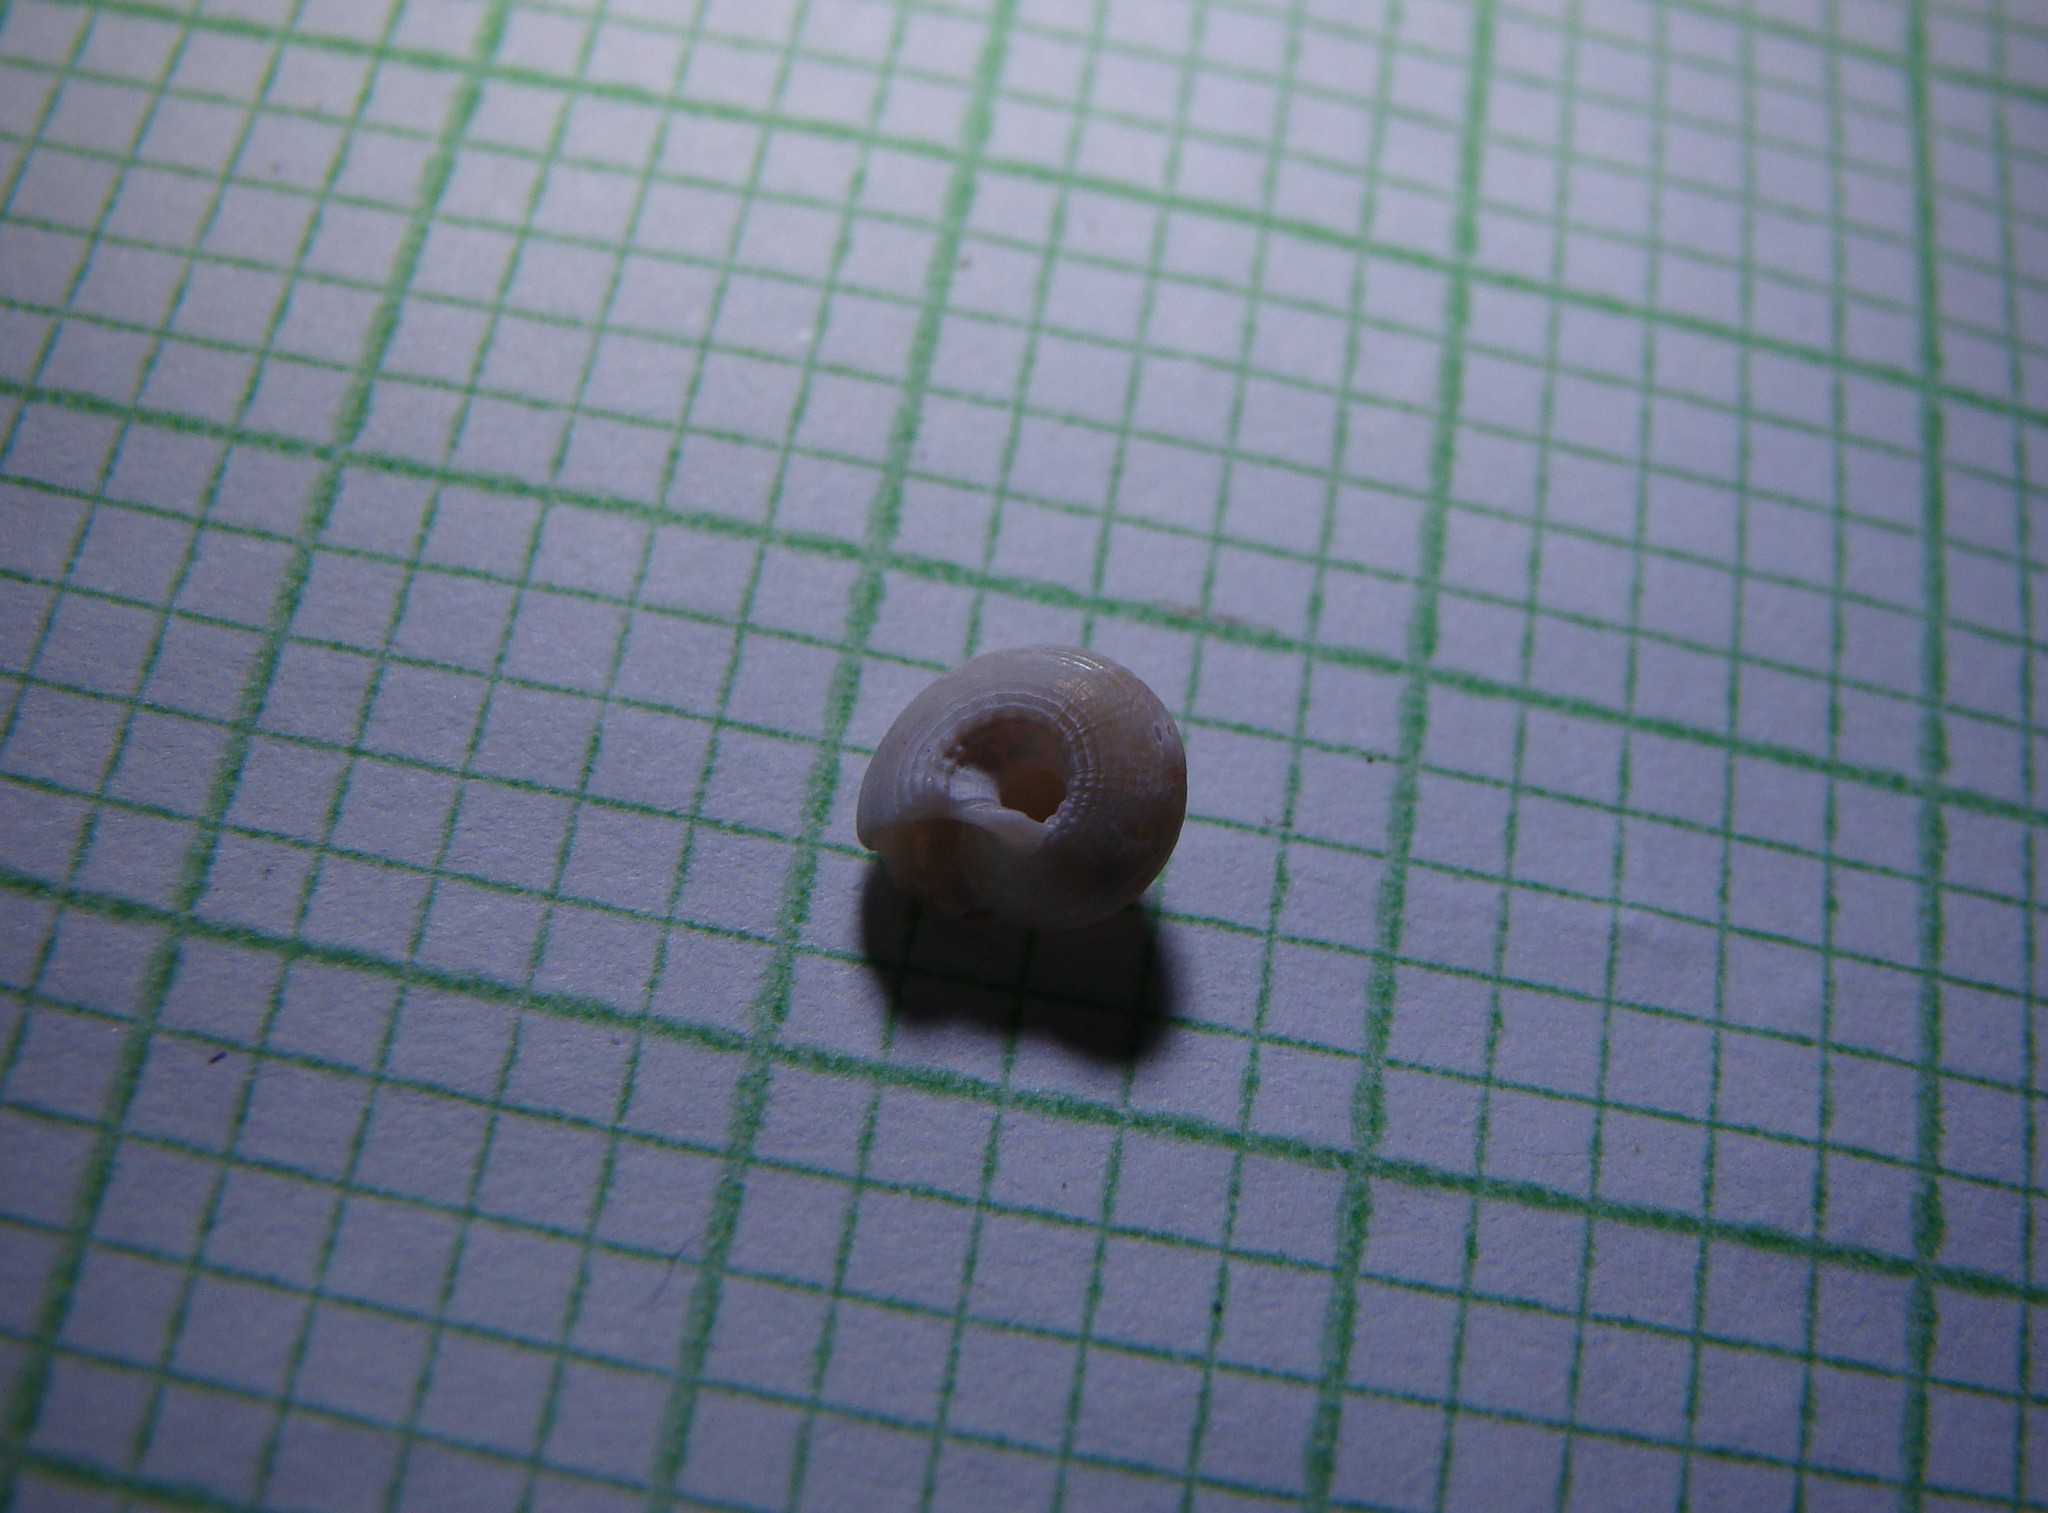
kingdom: Animalia
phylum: Mollusca
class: Gastropoda
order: Trochida
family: Trochidae
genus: Antisolarium
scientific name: Antisolarium egenum
